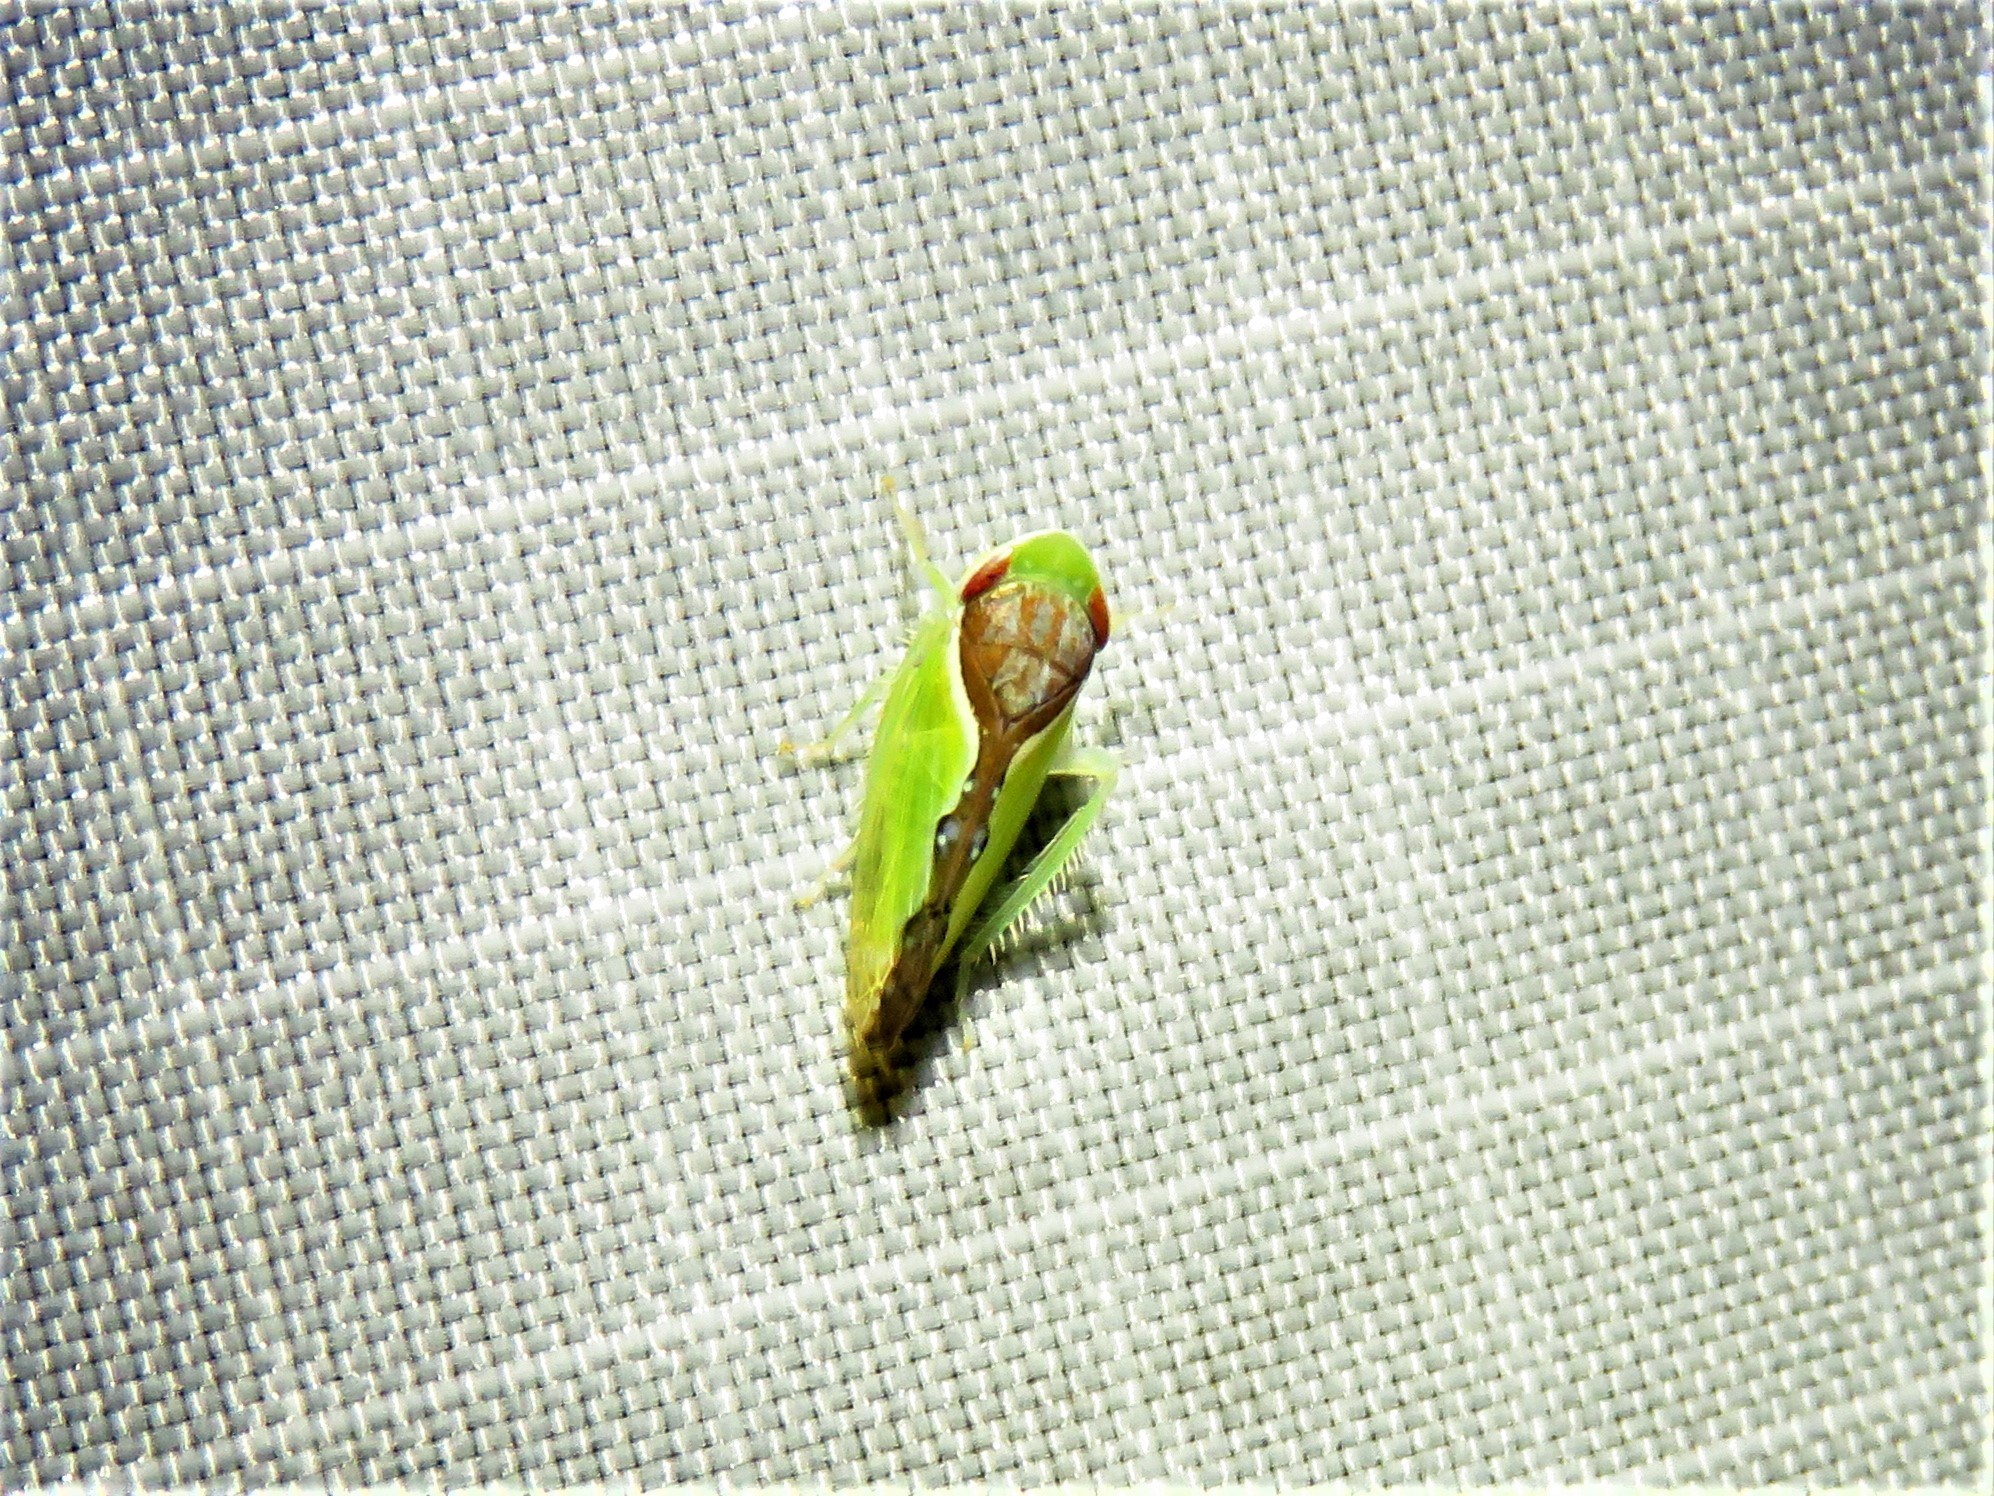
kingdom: Animalia
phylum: Arthropoda
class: Insecta
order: Hemiptera
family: Cicadellidae
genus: Omansobara ing
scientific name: Omansobara ing Omansobara palliolata
